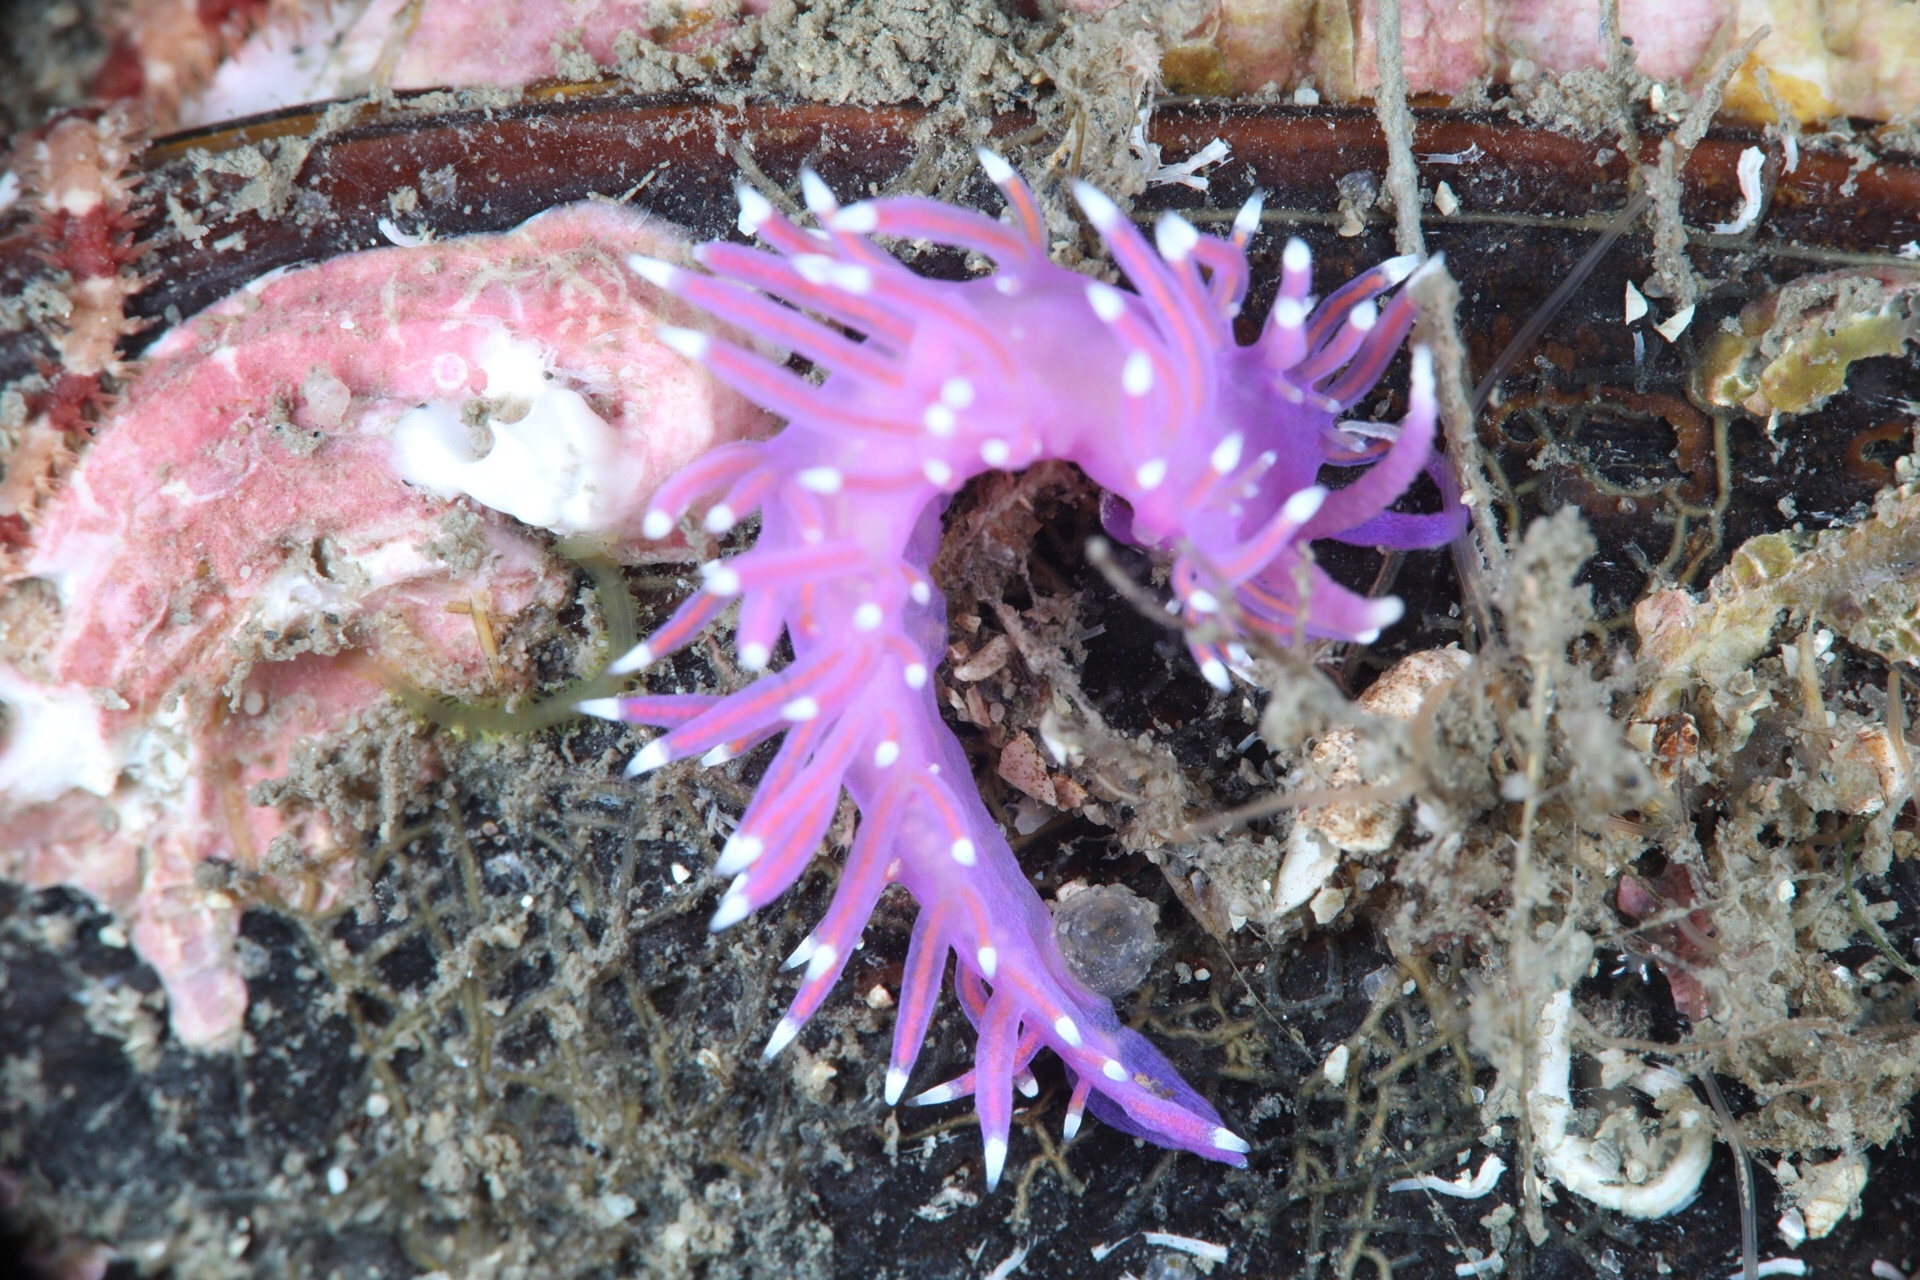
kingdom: Animalia
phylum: Mollusca
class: Gastropoda
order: Nudibranchia
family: Flabellinidae
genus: Edmundsella
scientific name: Edmundsella pedata
